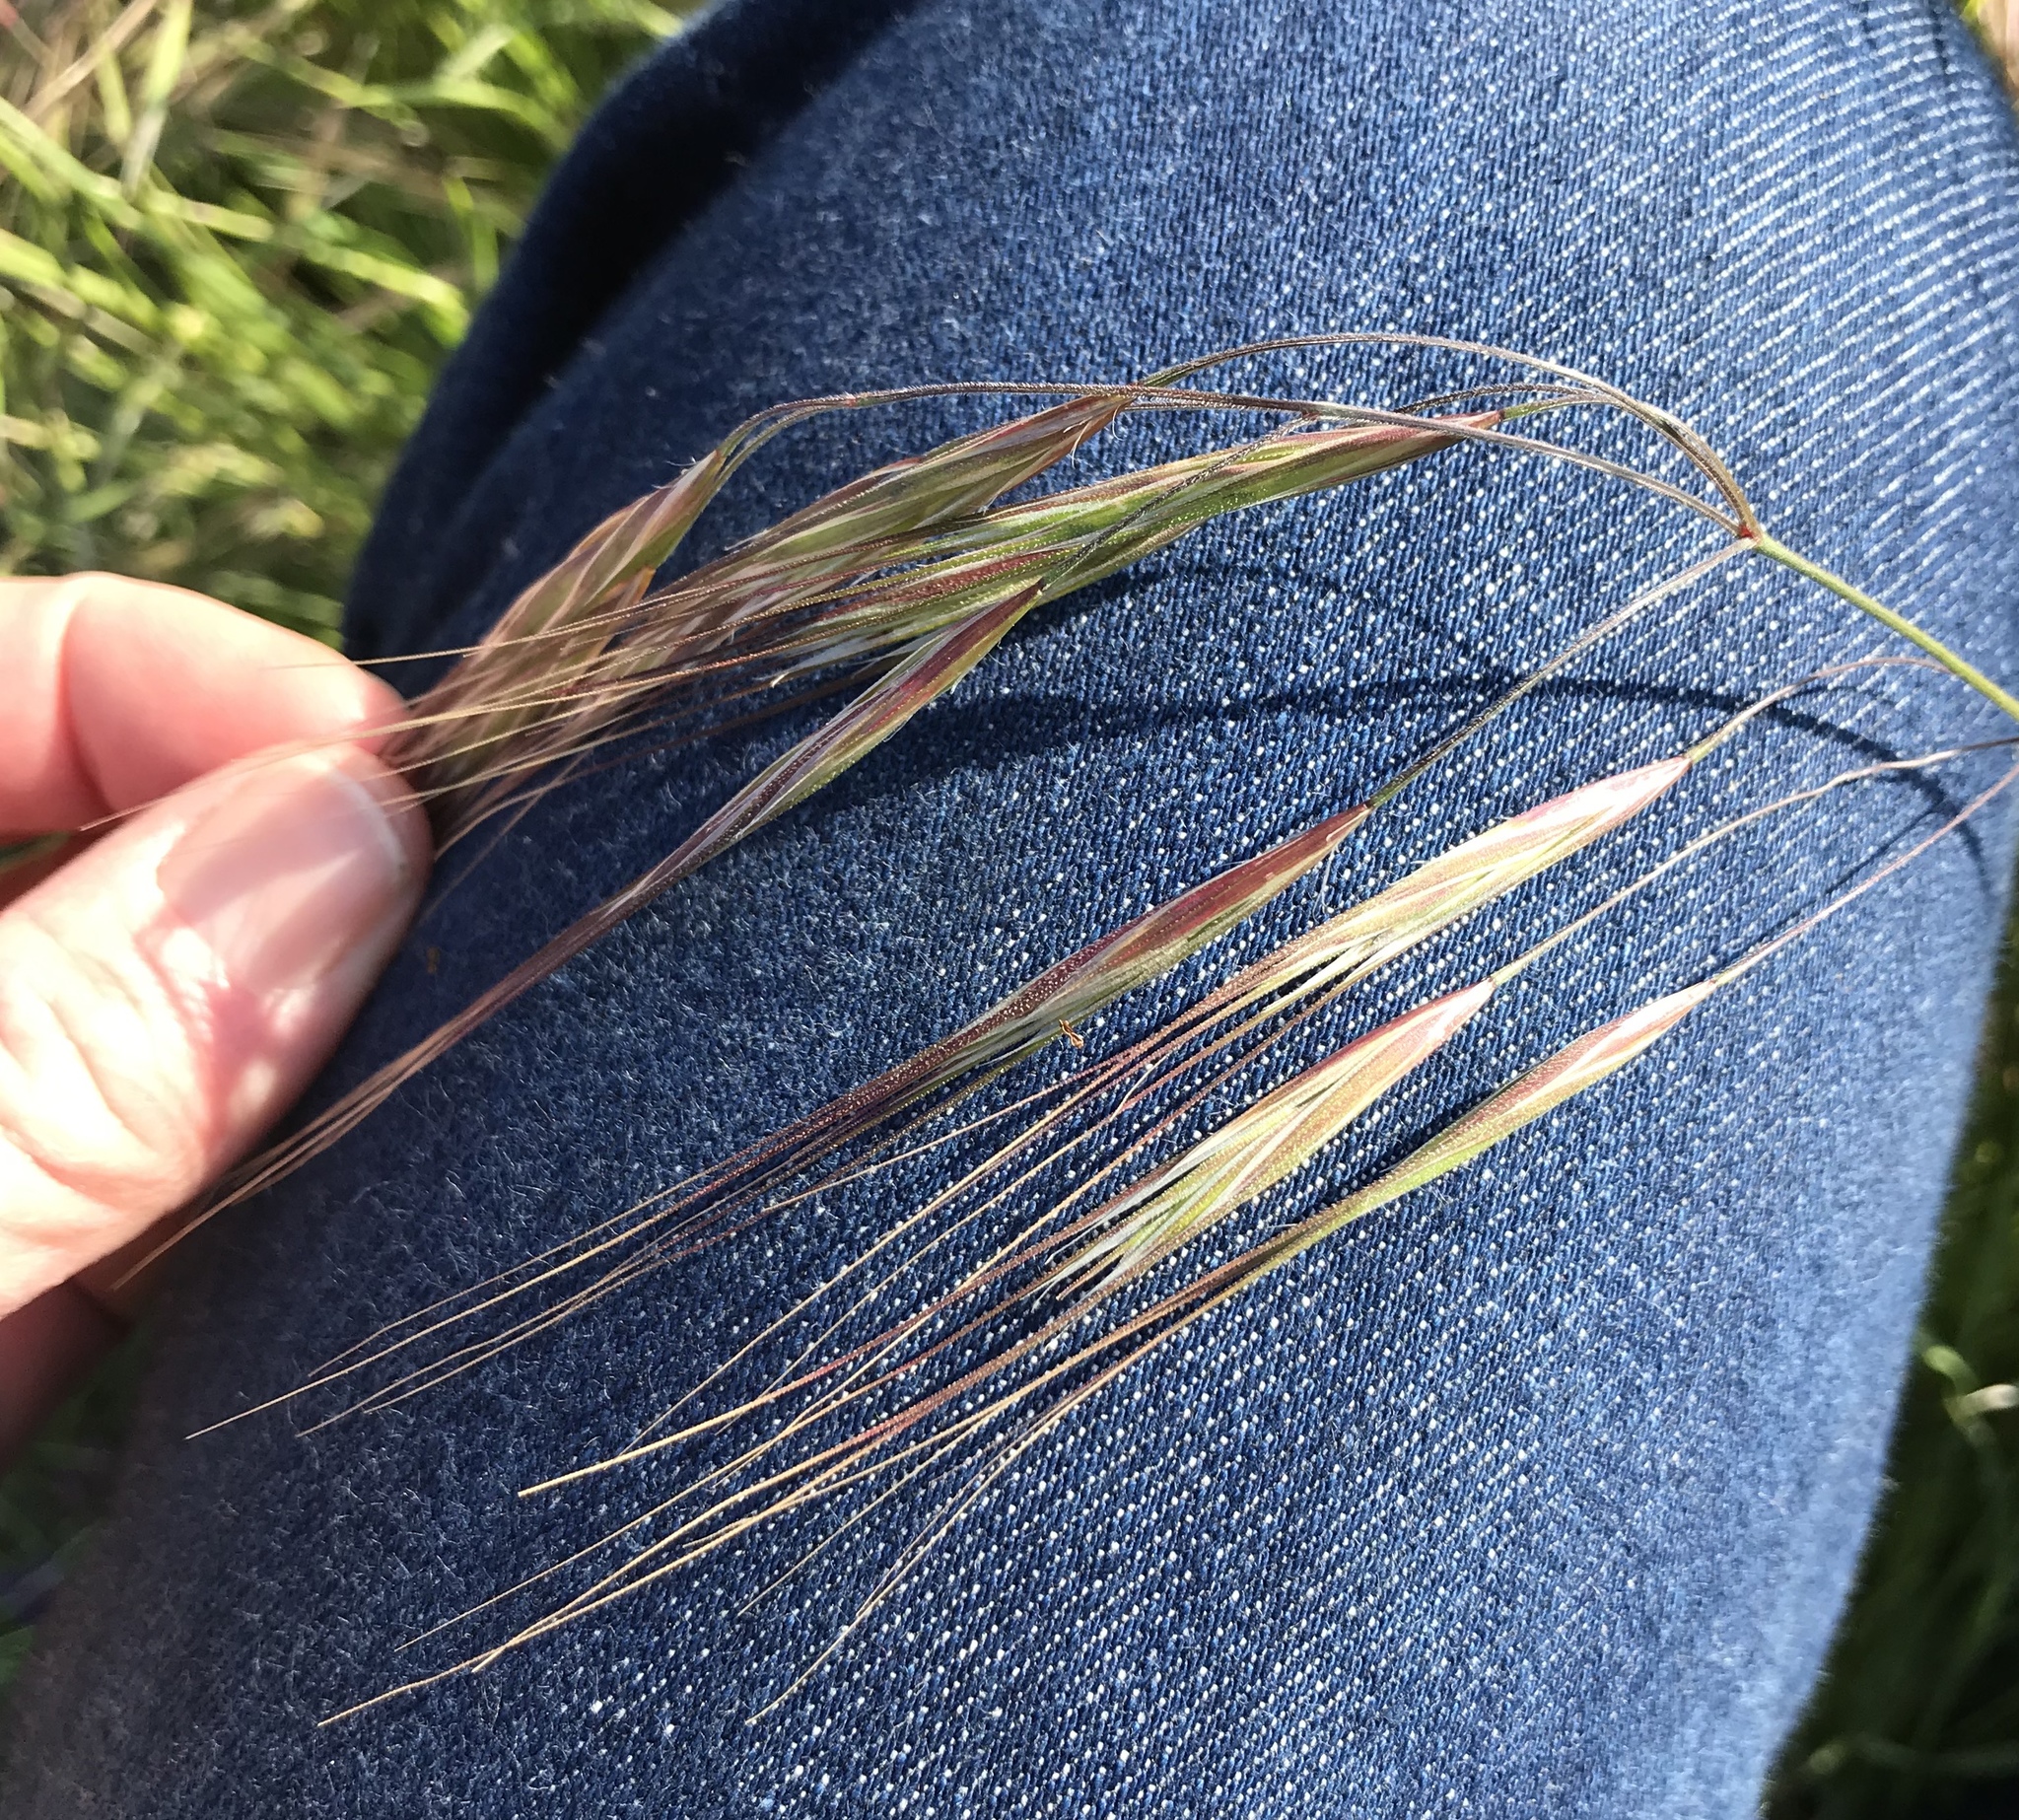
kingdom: Plantae
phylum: Tracheophyta
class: Liliopsida
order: Poales
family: Poaceae
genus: Bromus
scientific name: Bromus diandrus
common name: Ripgut brome
